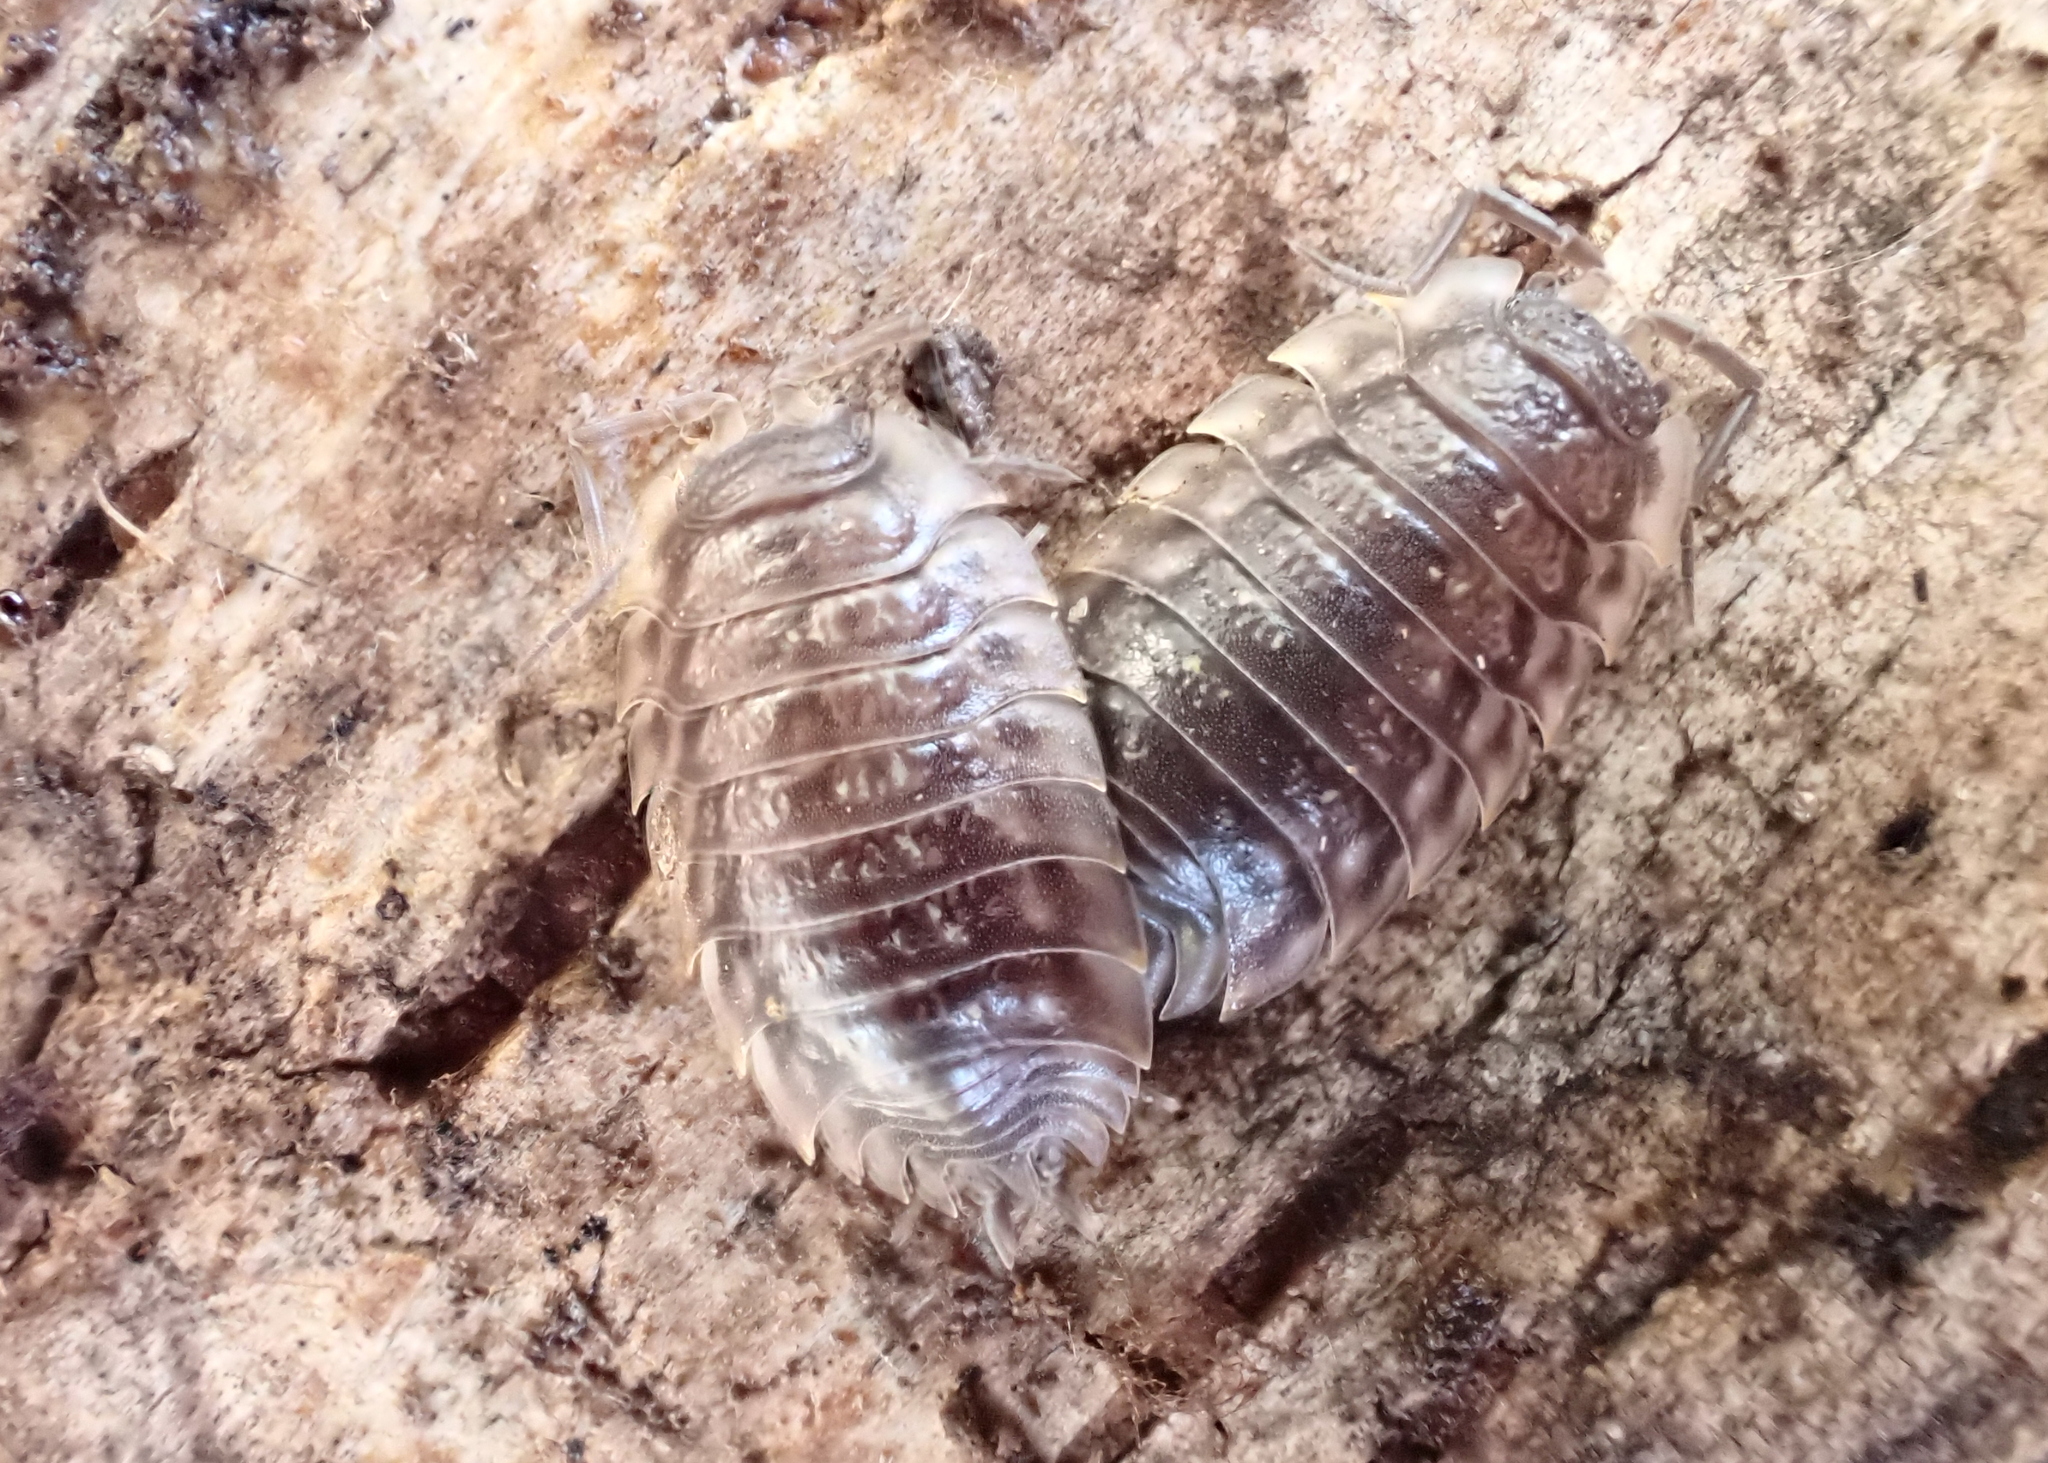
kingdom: Animalia
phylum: Arthropoda
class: Malacostraca
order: Isopoda
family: Oniscidae
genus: Oniscus
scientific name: Oniscus asellus
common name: Common shiny woodlouse
